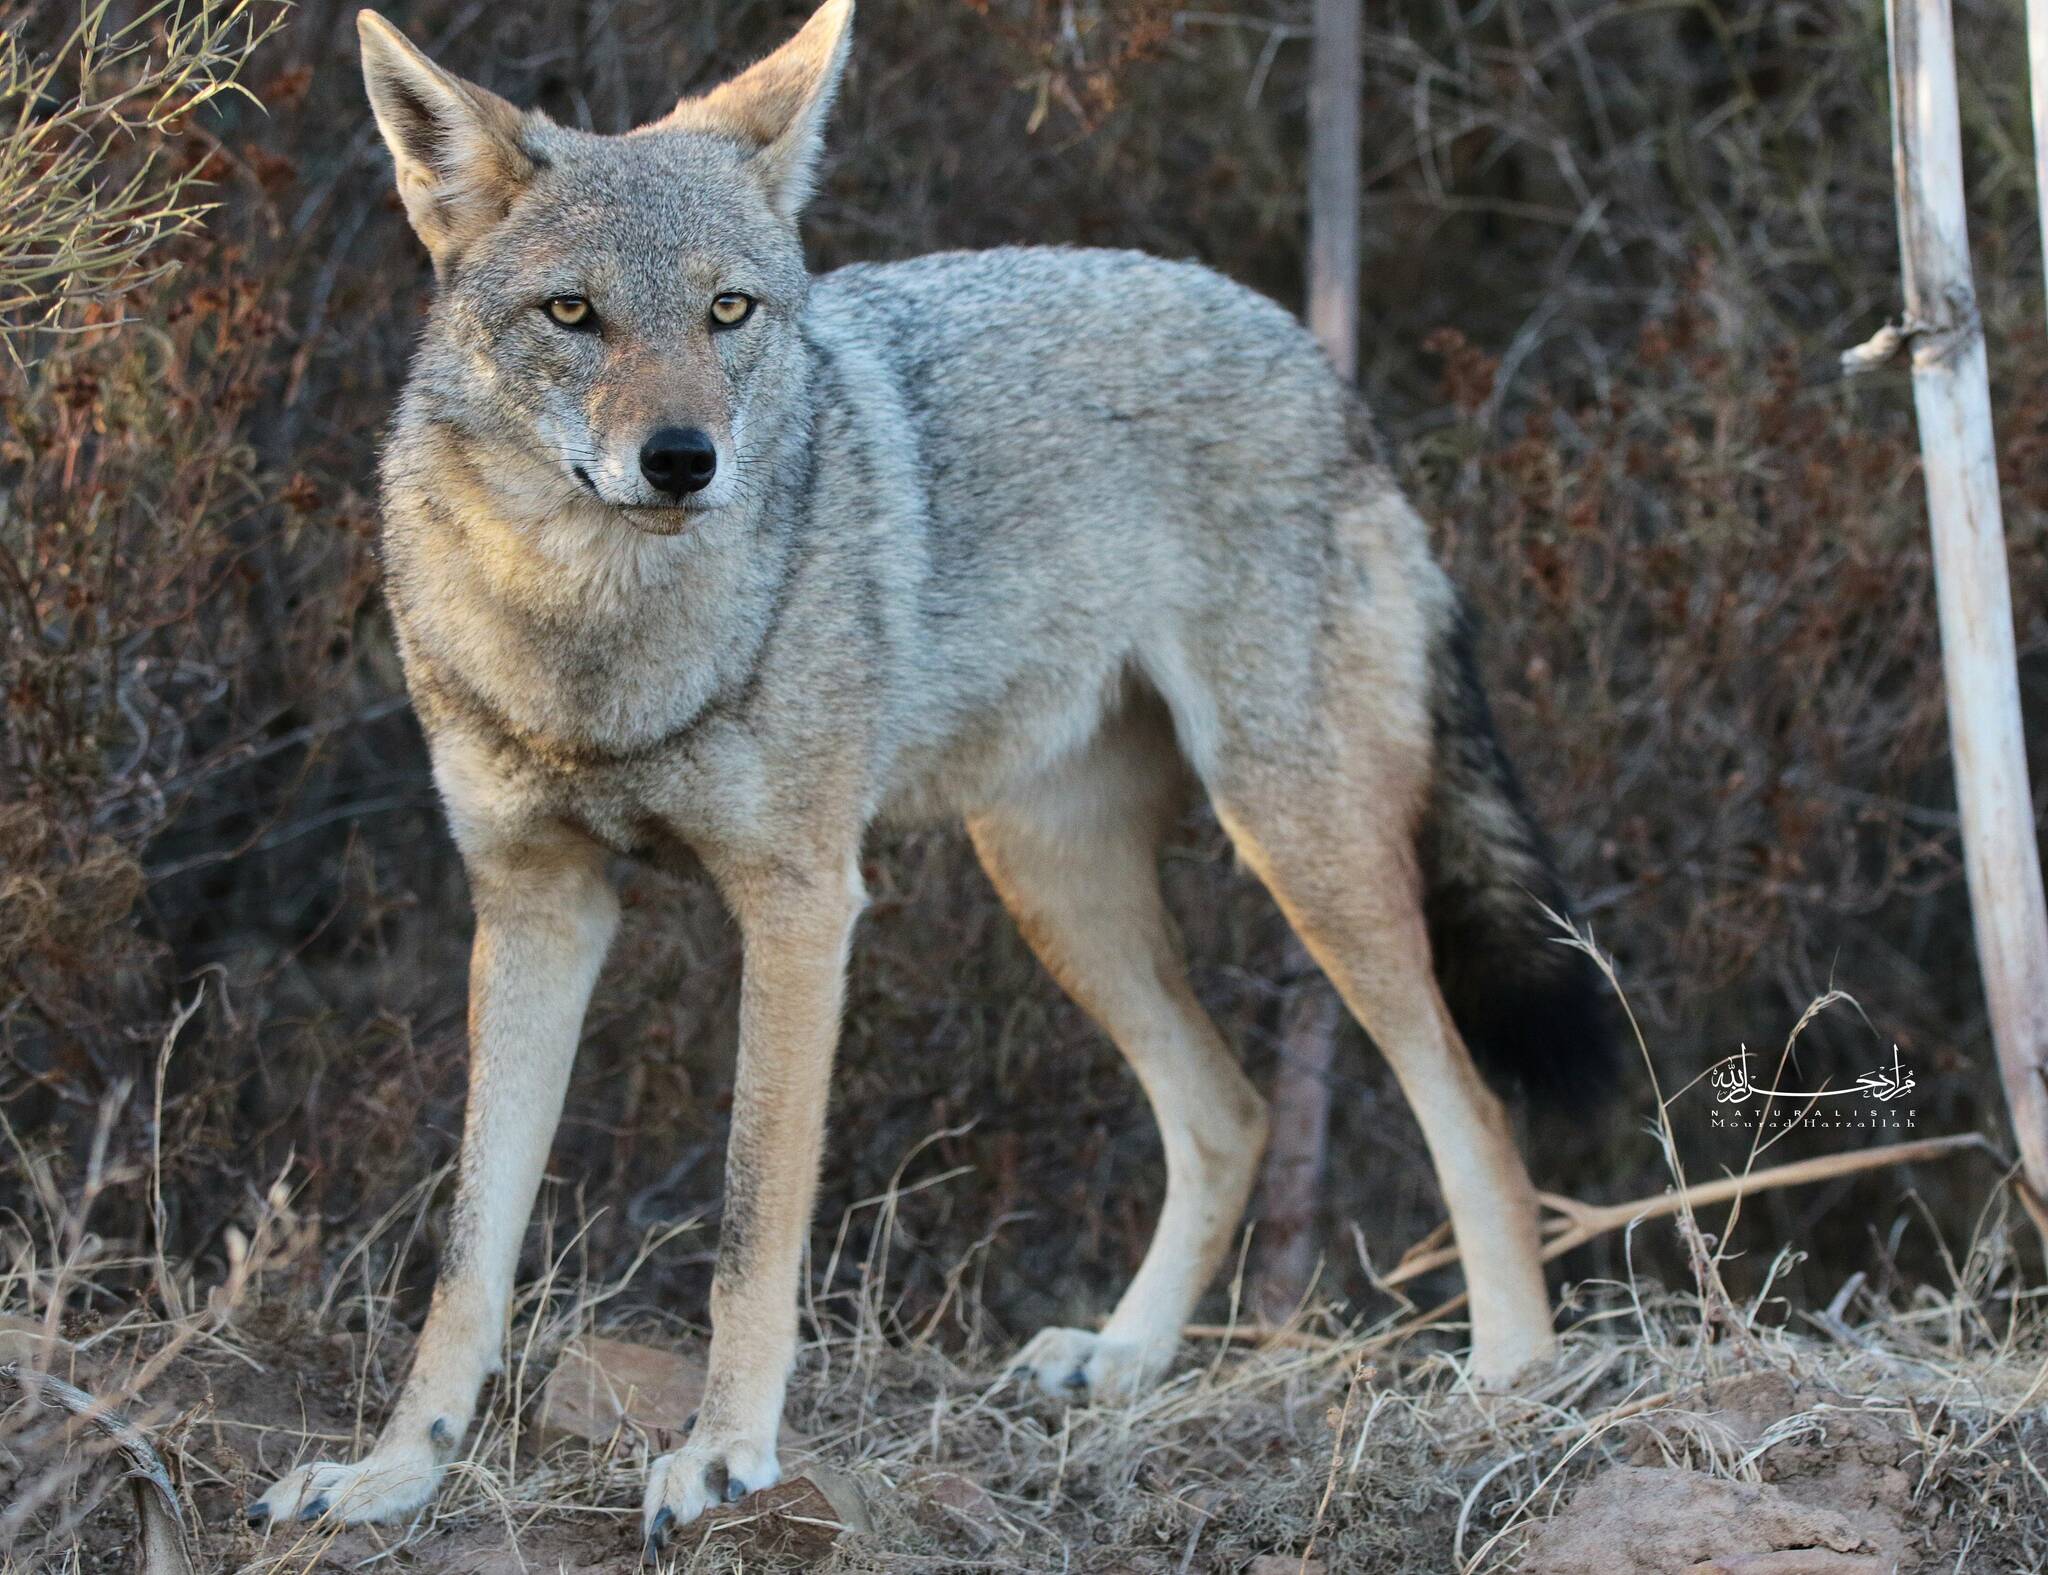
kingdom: Animalia
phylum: Chordata
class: Mammalia
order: Carnivora
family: Canidae
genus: Canis
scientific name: Canis lupaster
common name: African golden wolf
